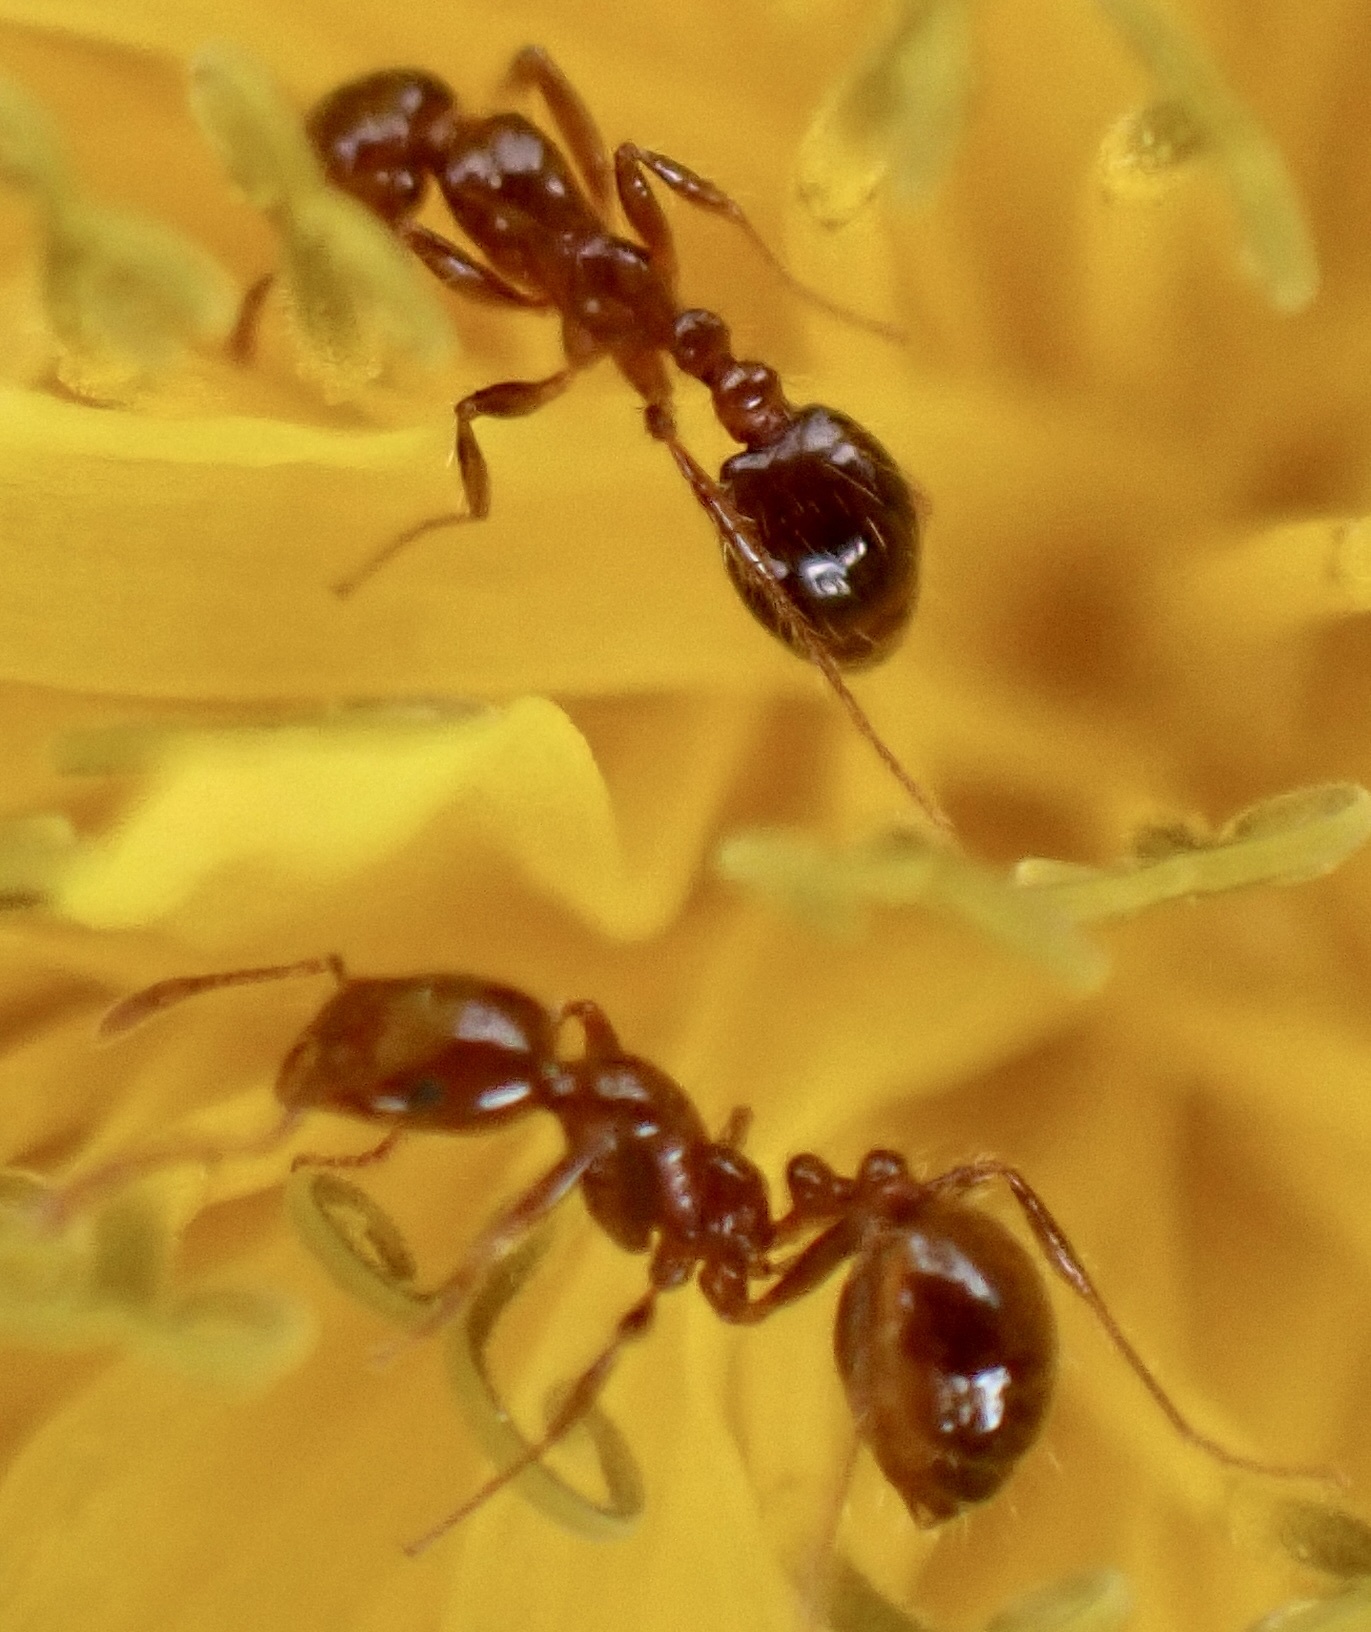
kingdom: Animalia
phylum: Arthropoda
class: Insecta
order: Hymenoptera
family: Formicidae
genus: Solenopsis
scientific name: Solenopsis invicta
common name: Red imported fire ant
